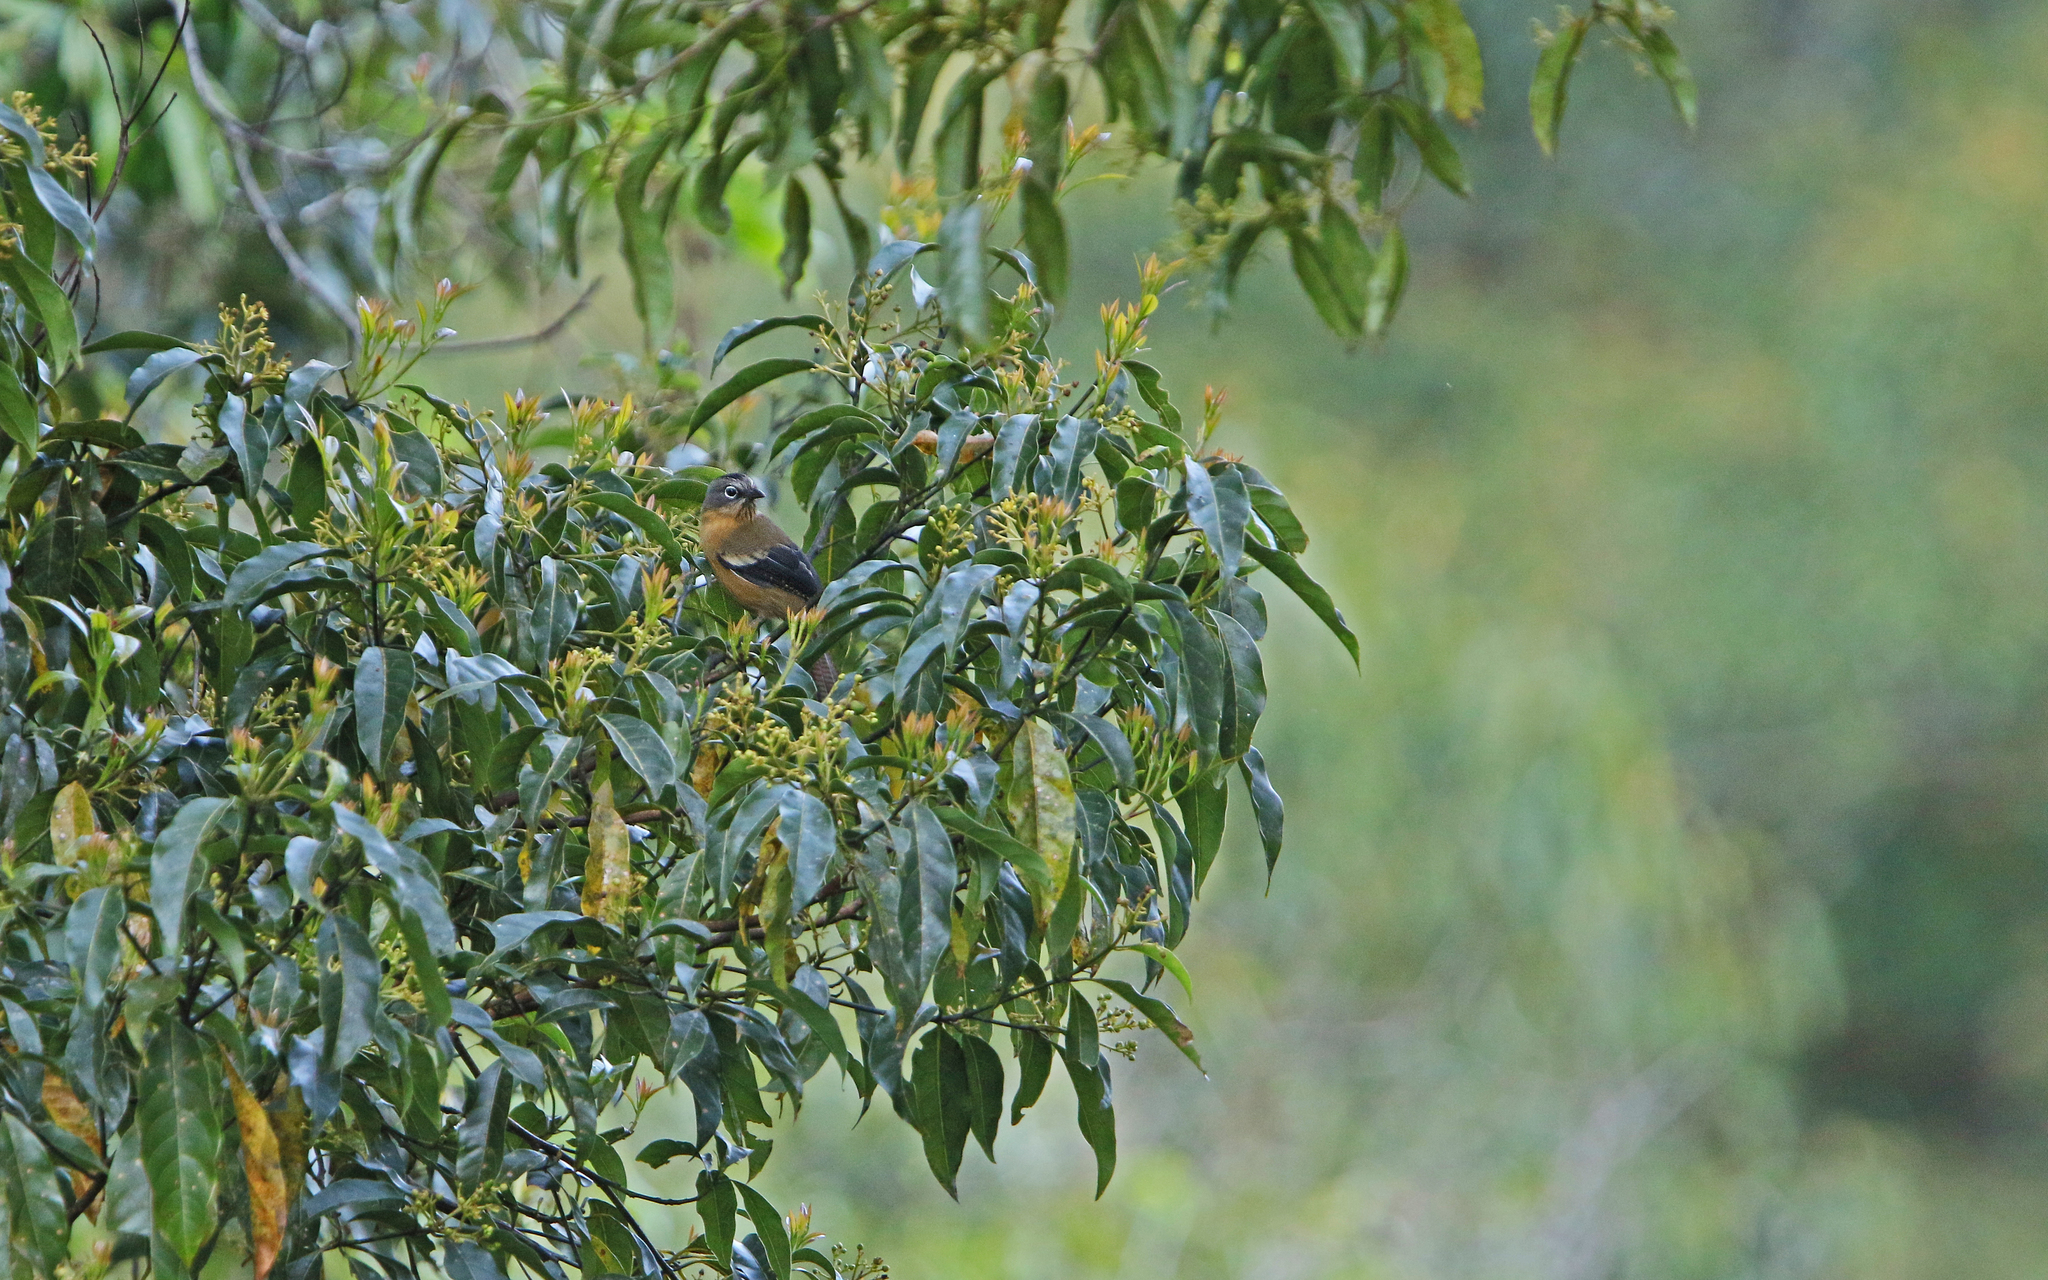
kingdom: Animalia
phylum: Chordata
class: Aves
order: Passeriformes
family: Leiothrichidae
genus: Actinodura
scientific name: Actinodura sodangorum
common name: Black-crowned barwing
